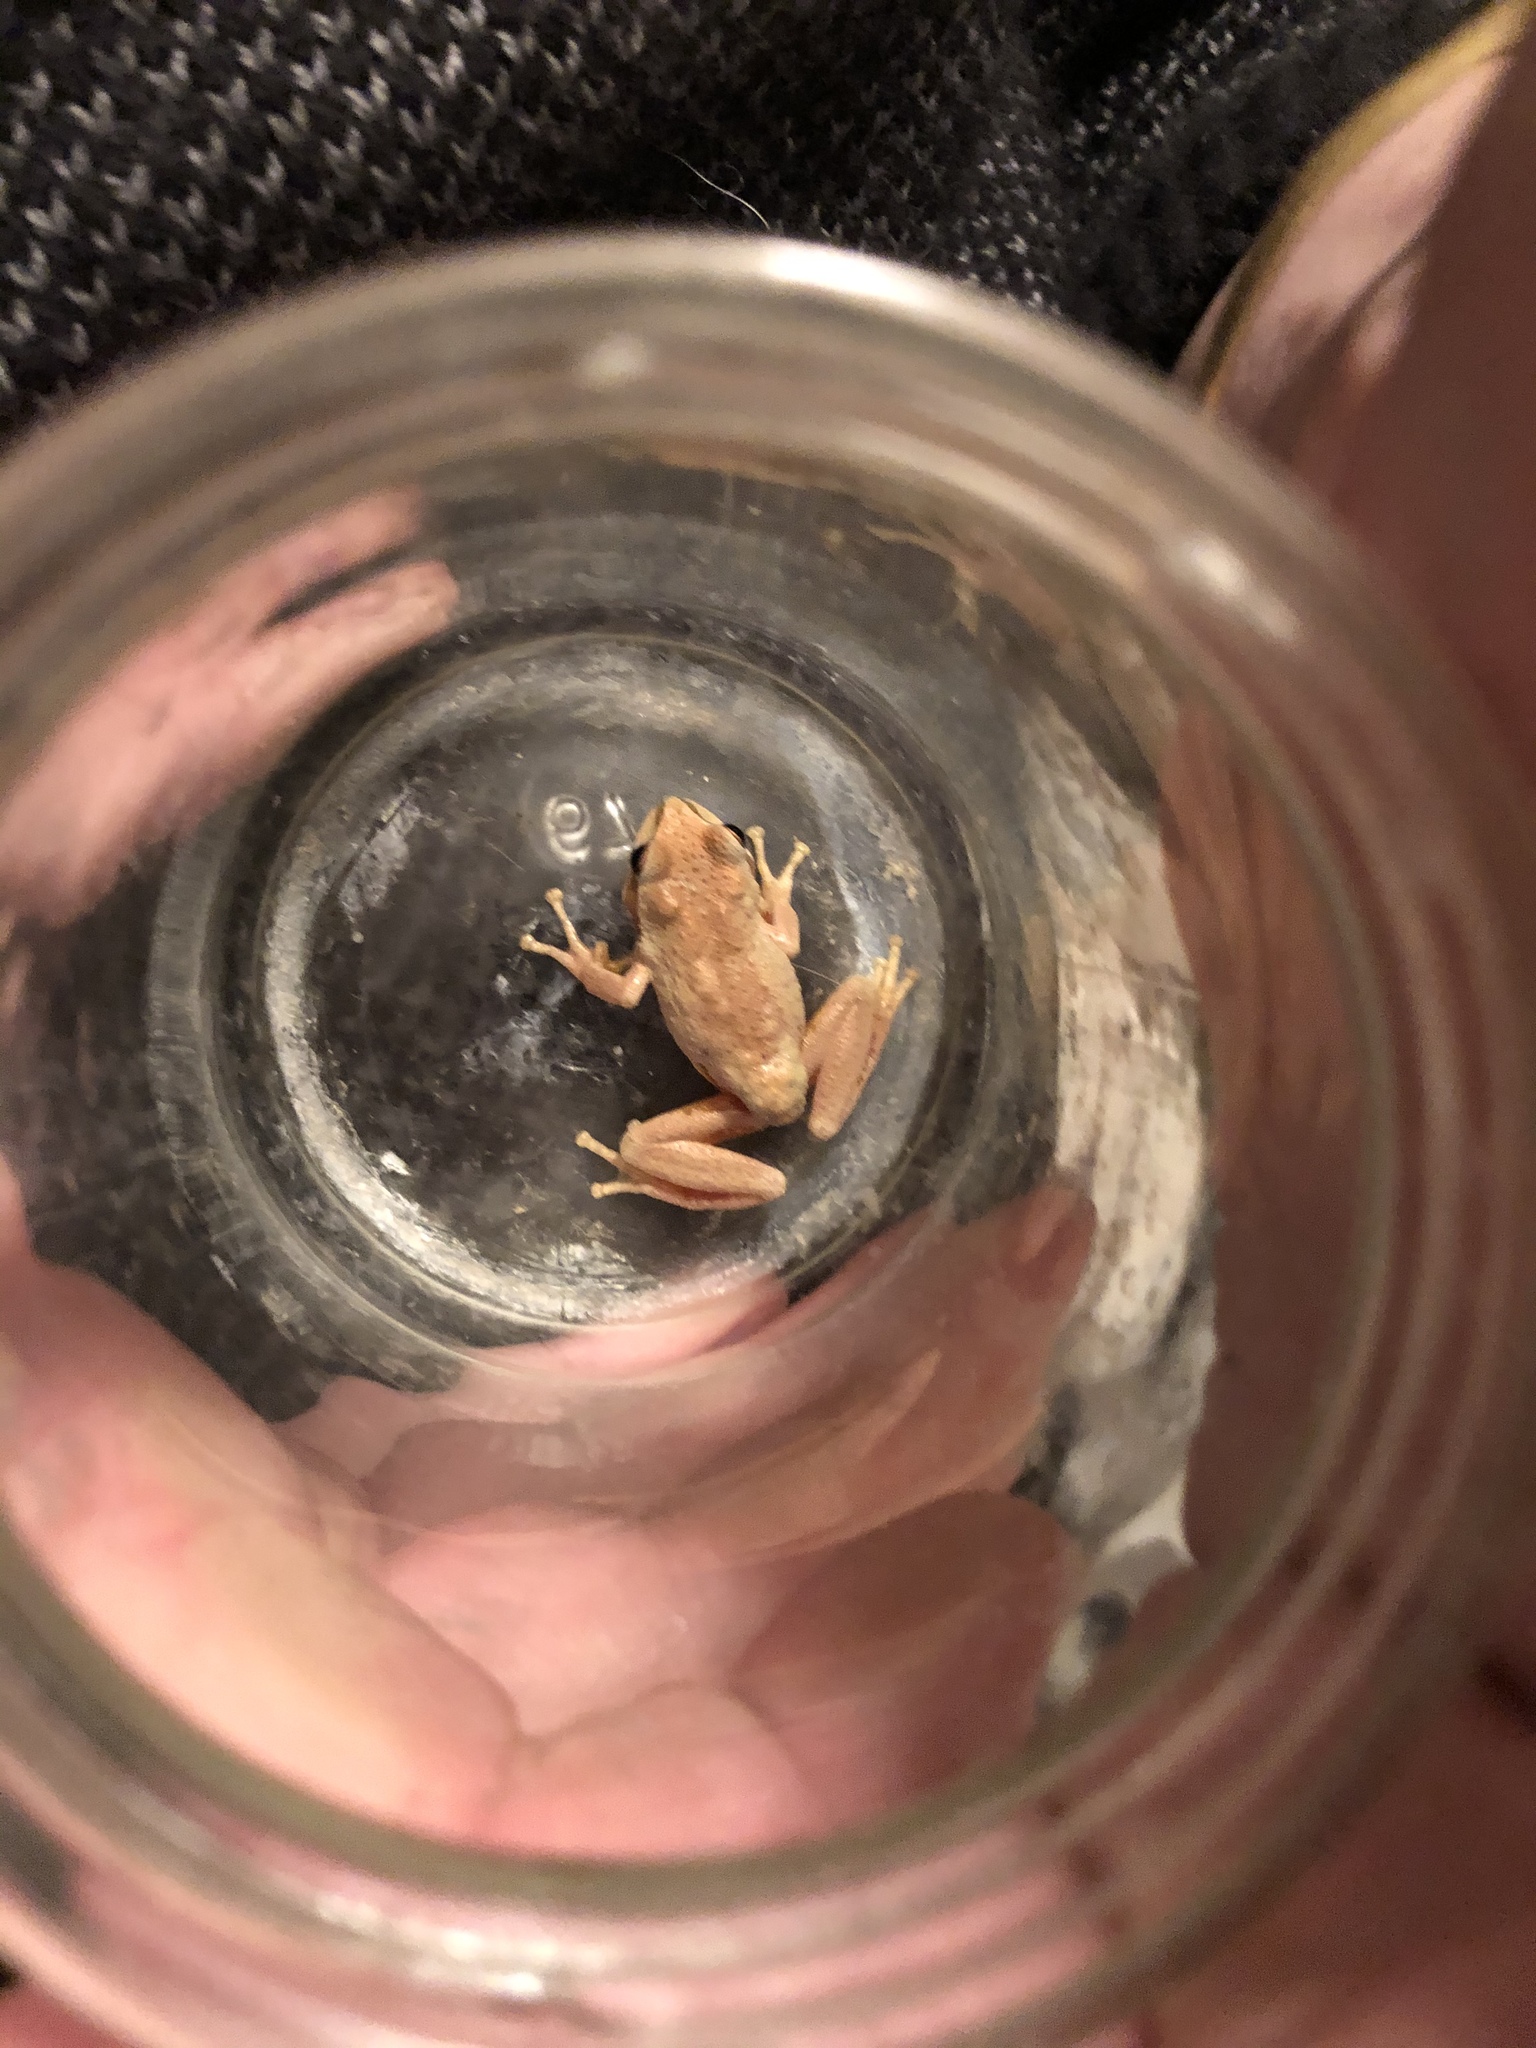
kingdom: Animalia
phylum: Chordata
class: Amphibia
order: Anura
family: Hylidae
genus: Pseudacris
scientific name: Pseudacris regilla
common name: Pacific chorus frog
